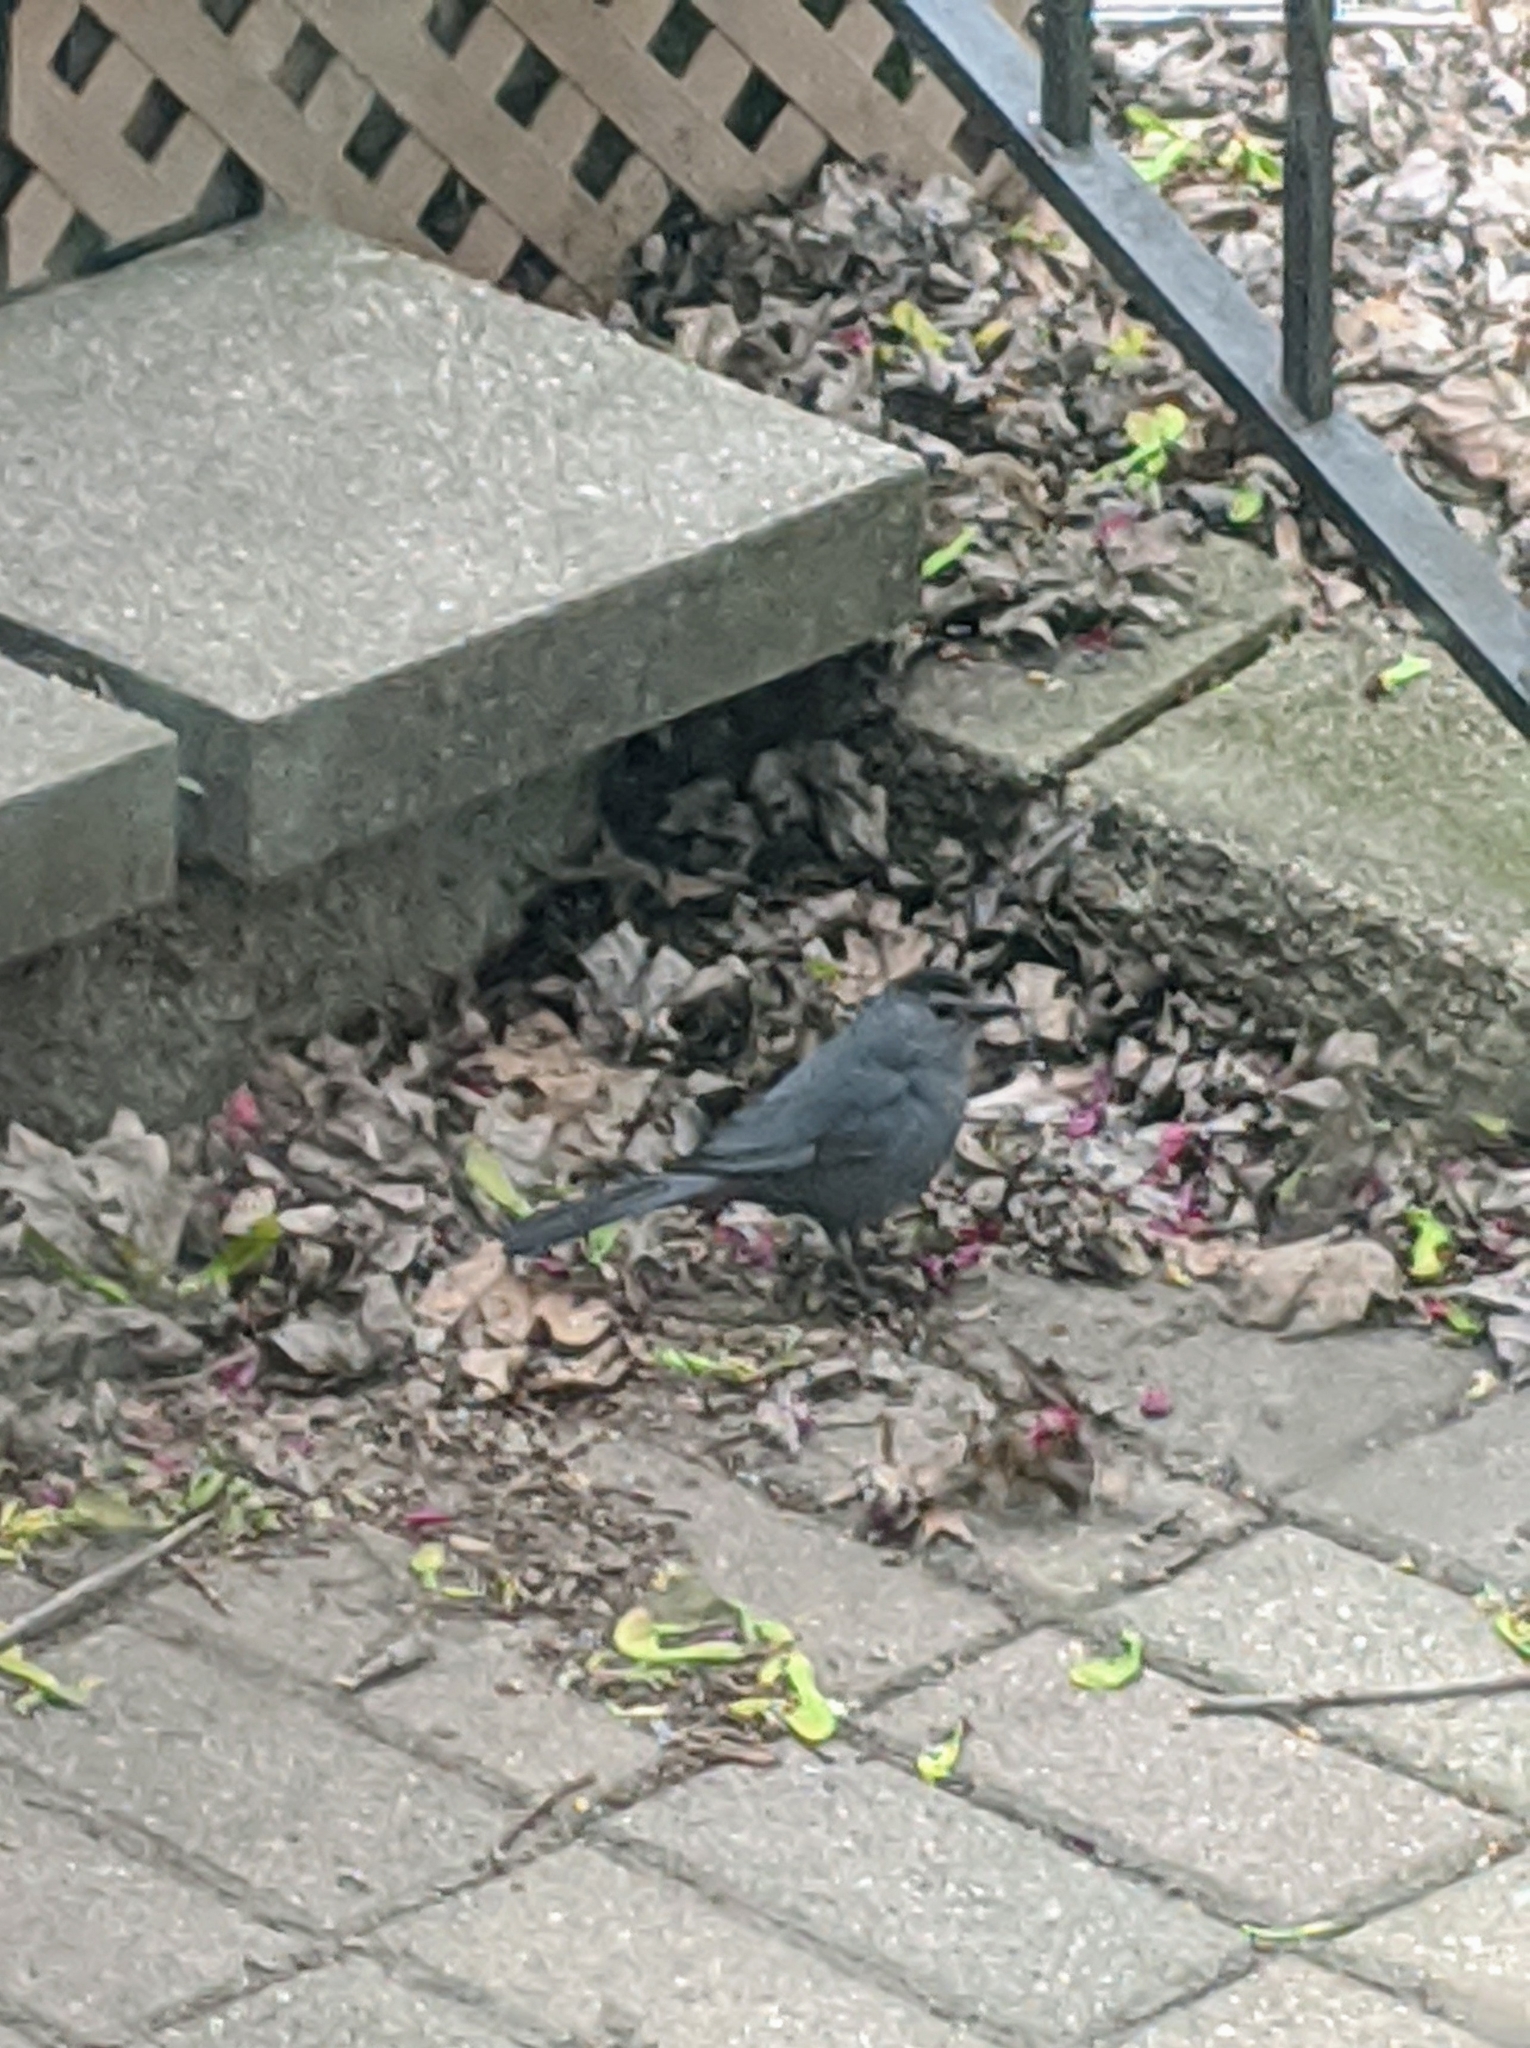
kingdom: Animalia
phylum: Chordata
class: Aves
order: Passeriformes
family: Mimidae
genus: Dumetella
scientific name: Dumetella carolinensis
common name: Gray catbird
